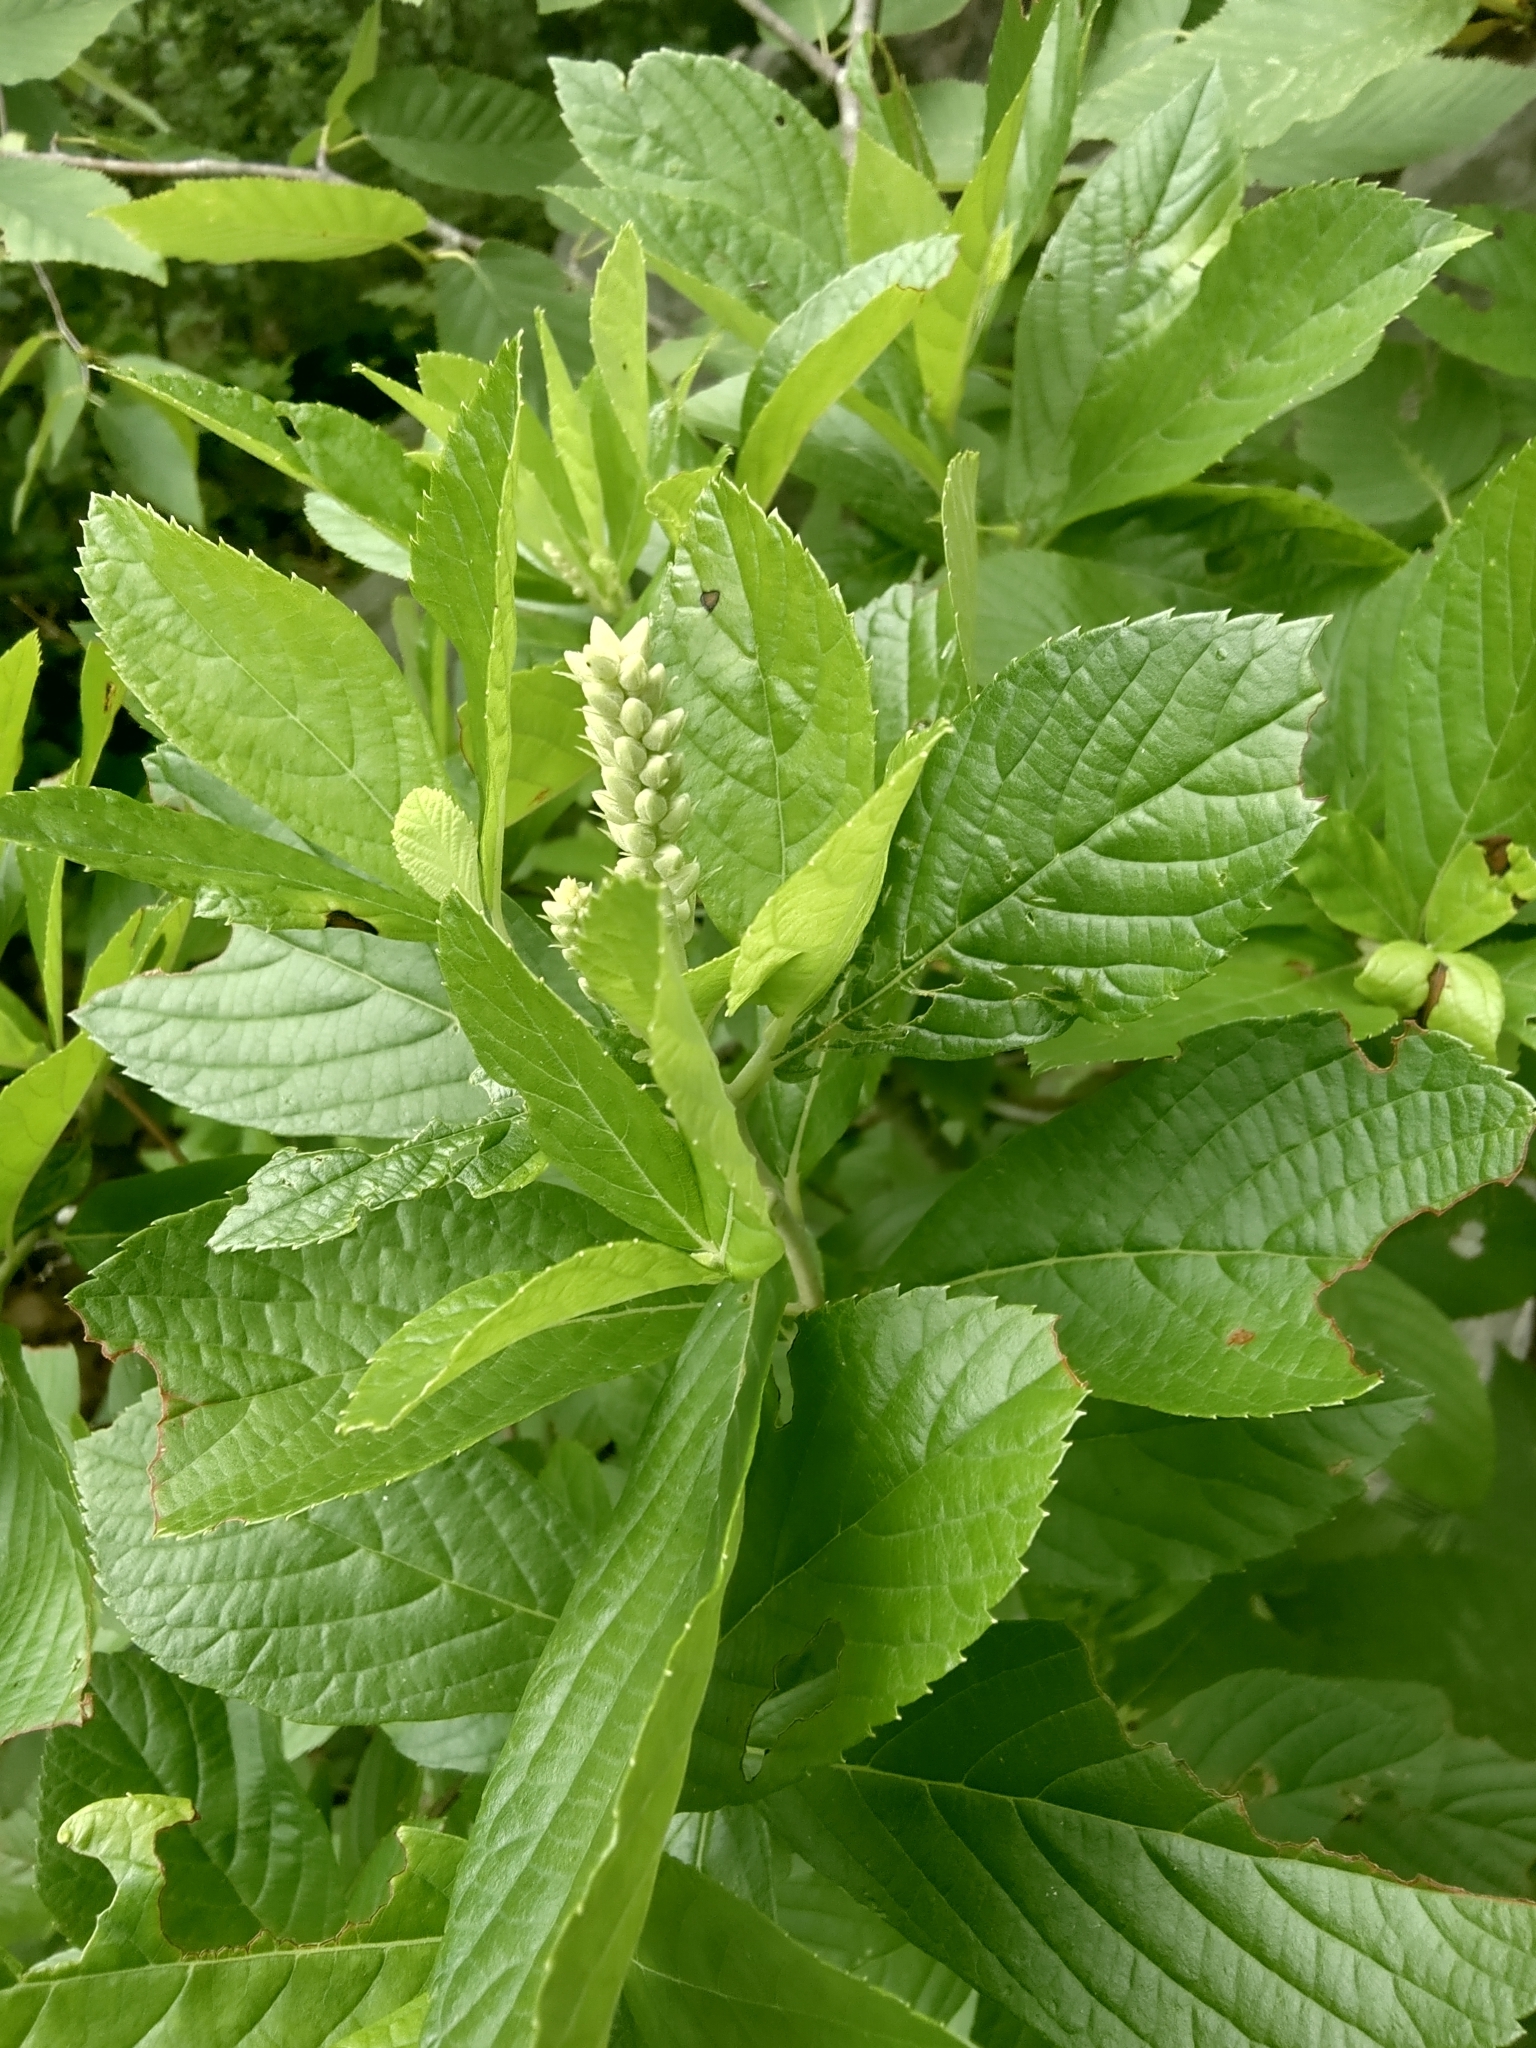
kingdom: Plantae
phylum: Tracheophyta
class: Magnoliopsida
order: Ericales
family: Clethraceae
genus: Clethra
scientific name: Clethra alnifolia
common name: Sweet pepperbush
